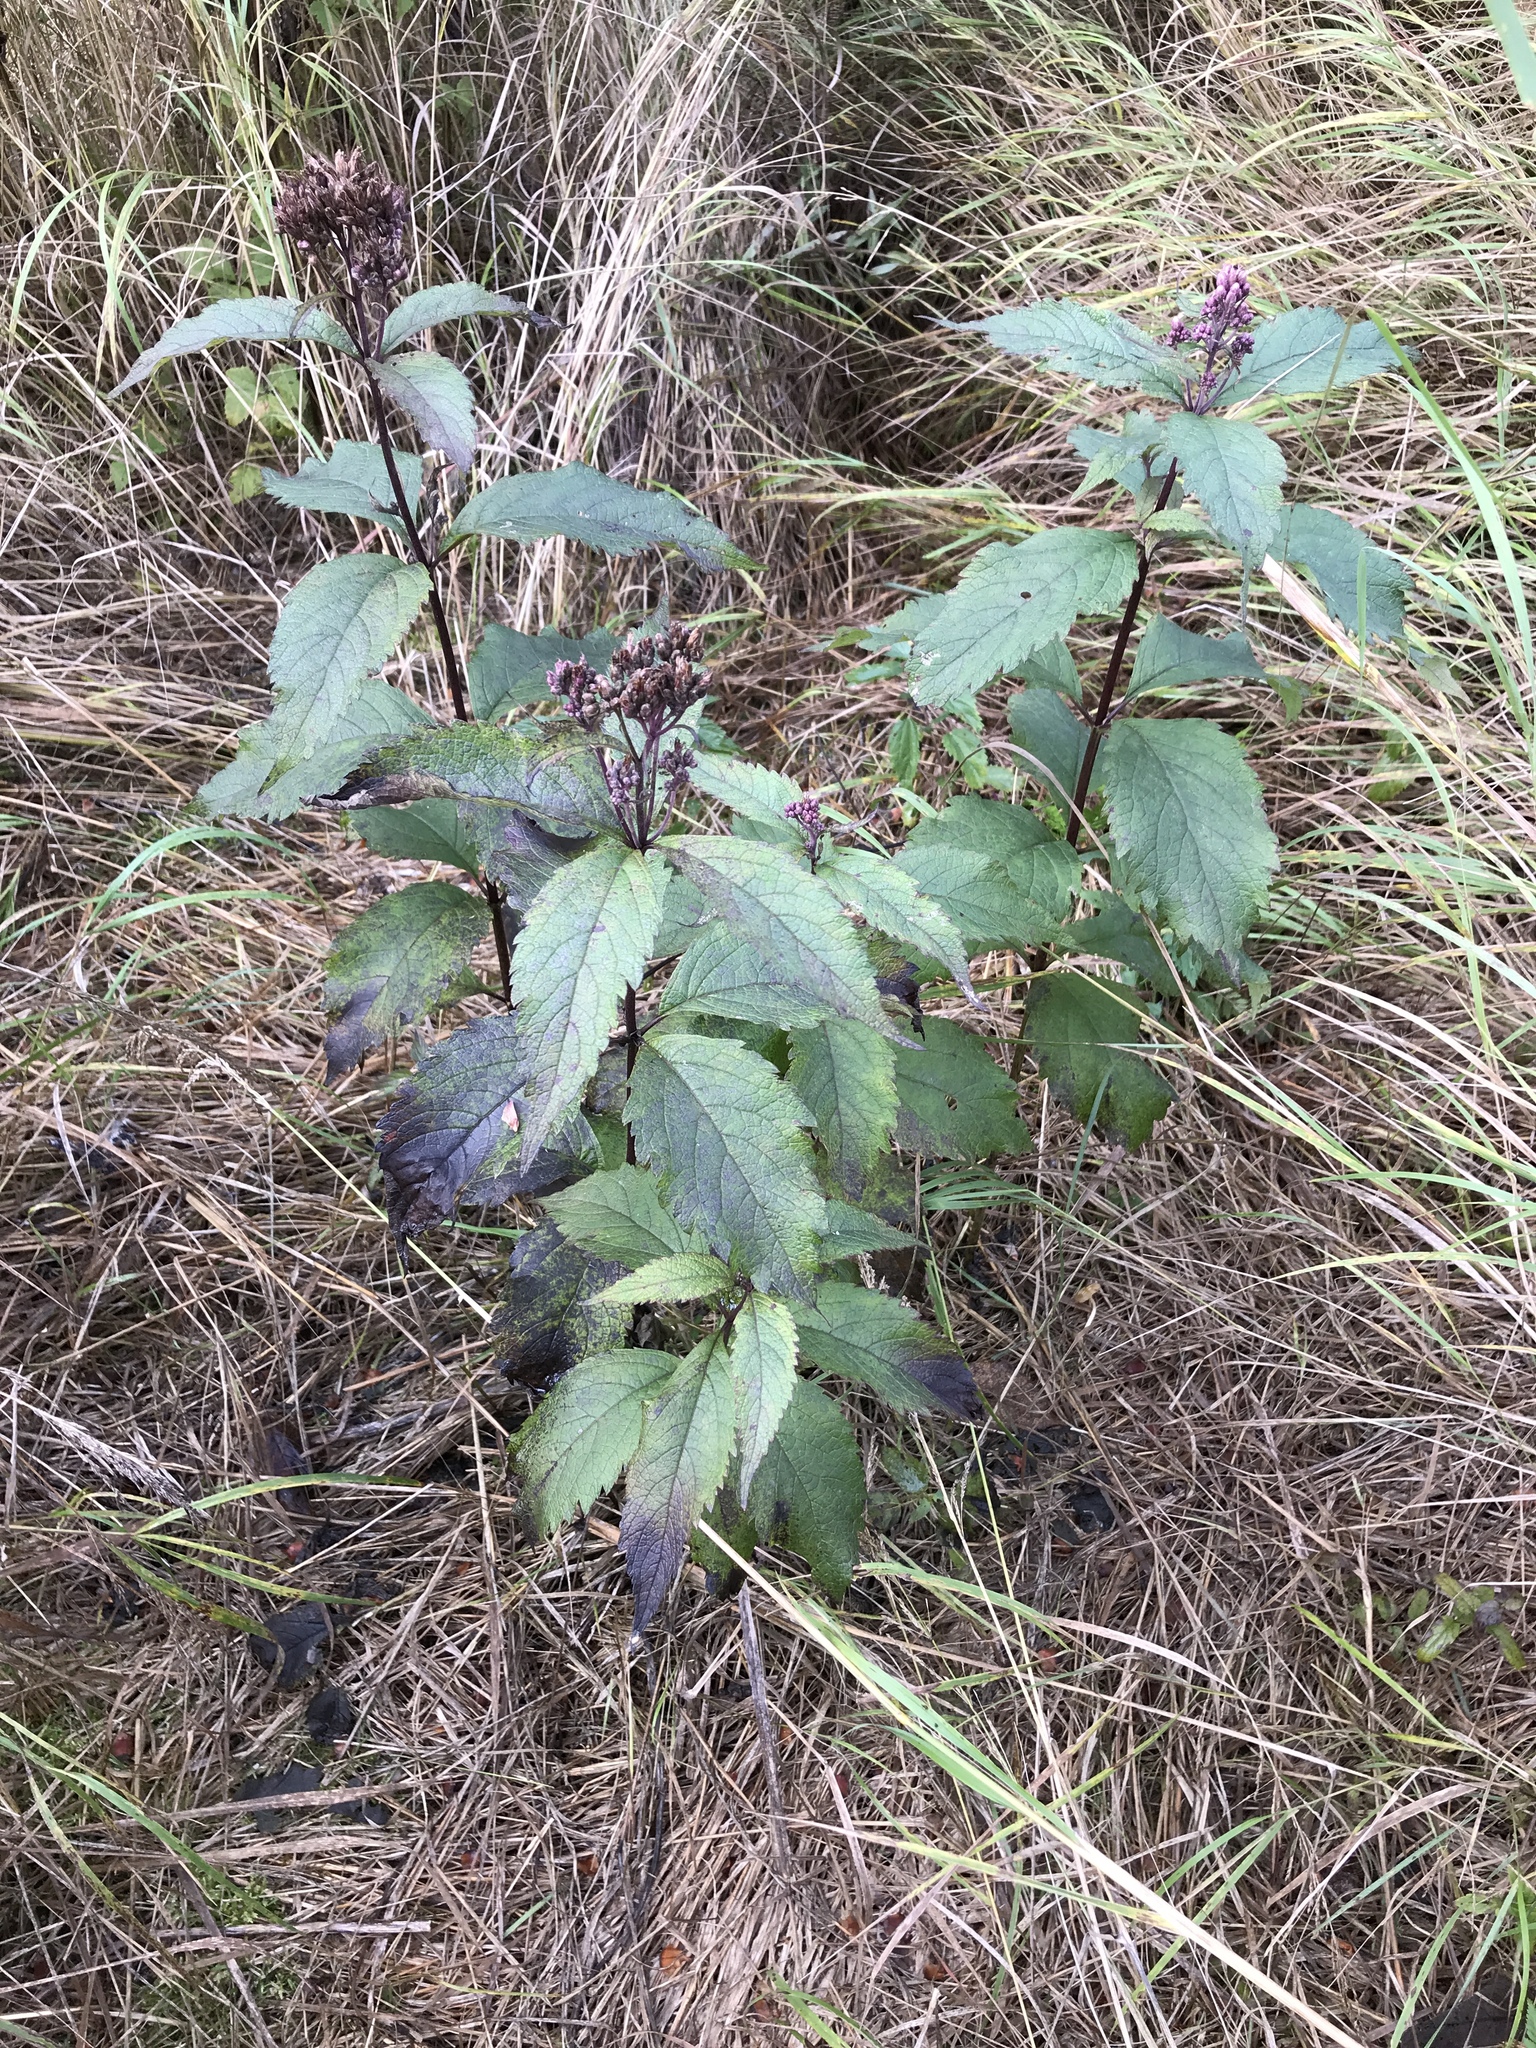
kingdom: Plantae
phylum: Tracheophyta
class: Magnoliopsida
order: Asterales
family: Asteraceae
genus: Eutrochium
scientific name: Eutrochium maculatum
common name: Spotted joe pye weed
